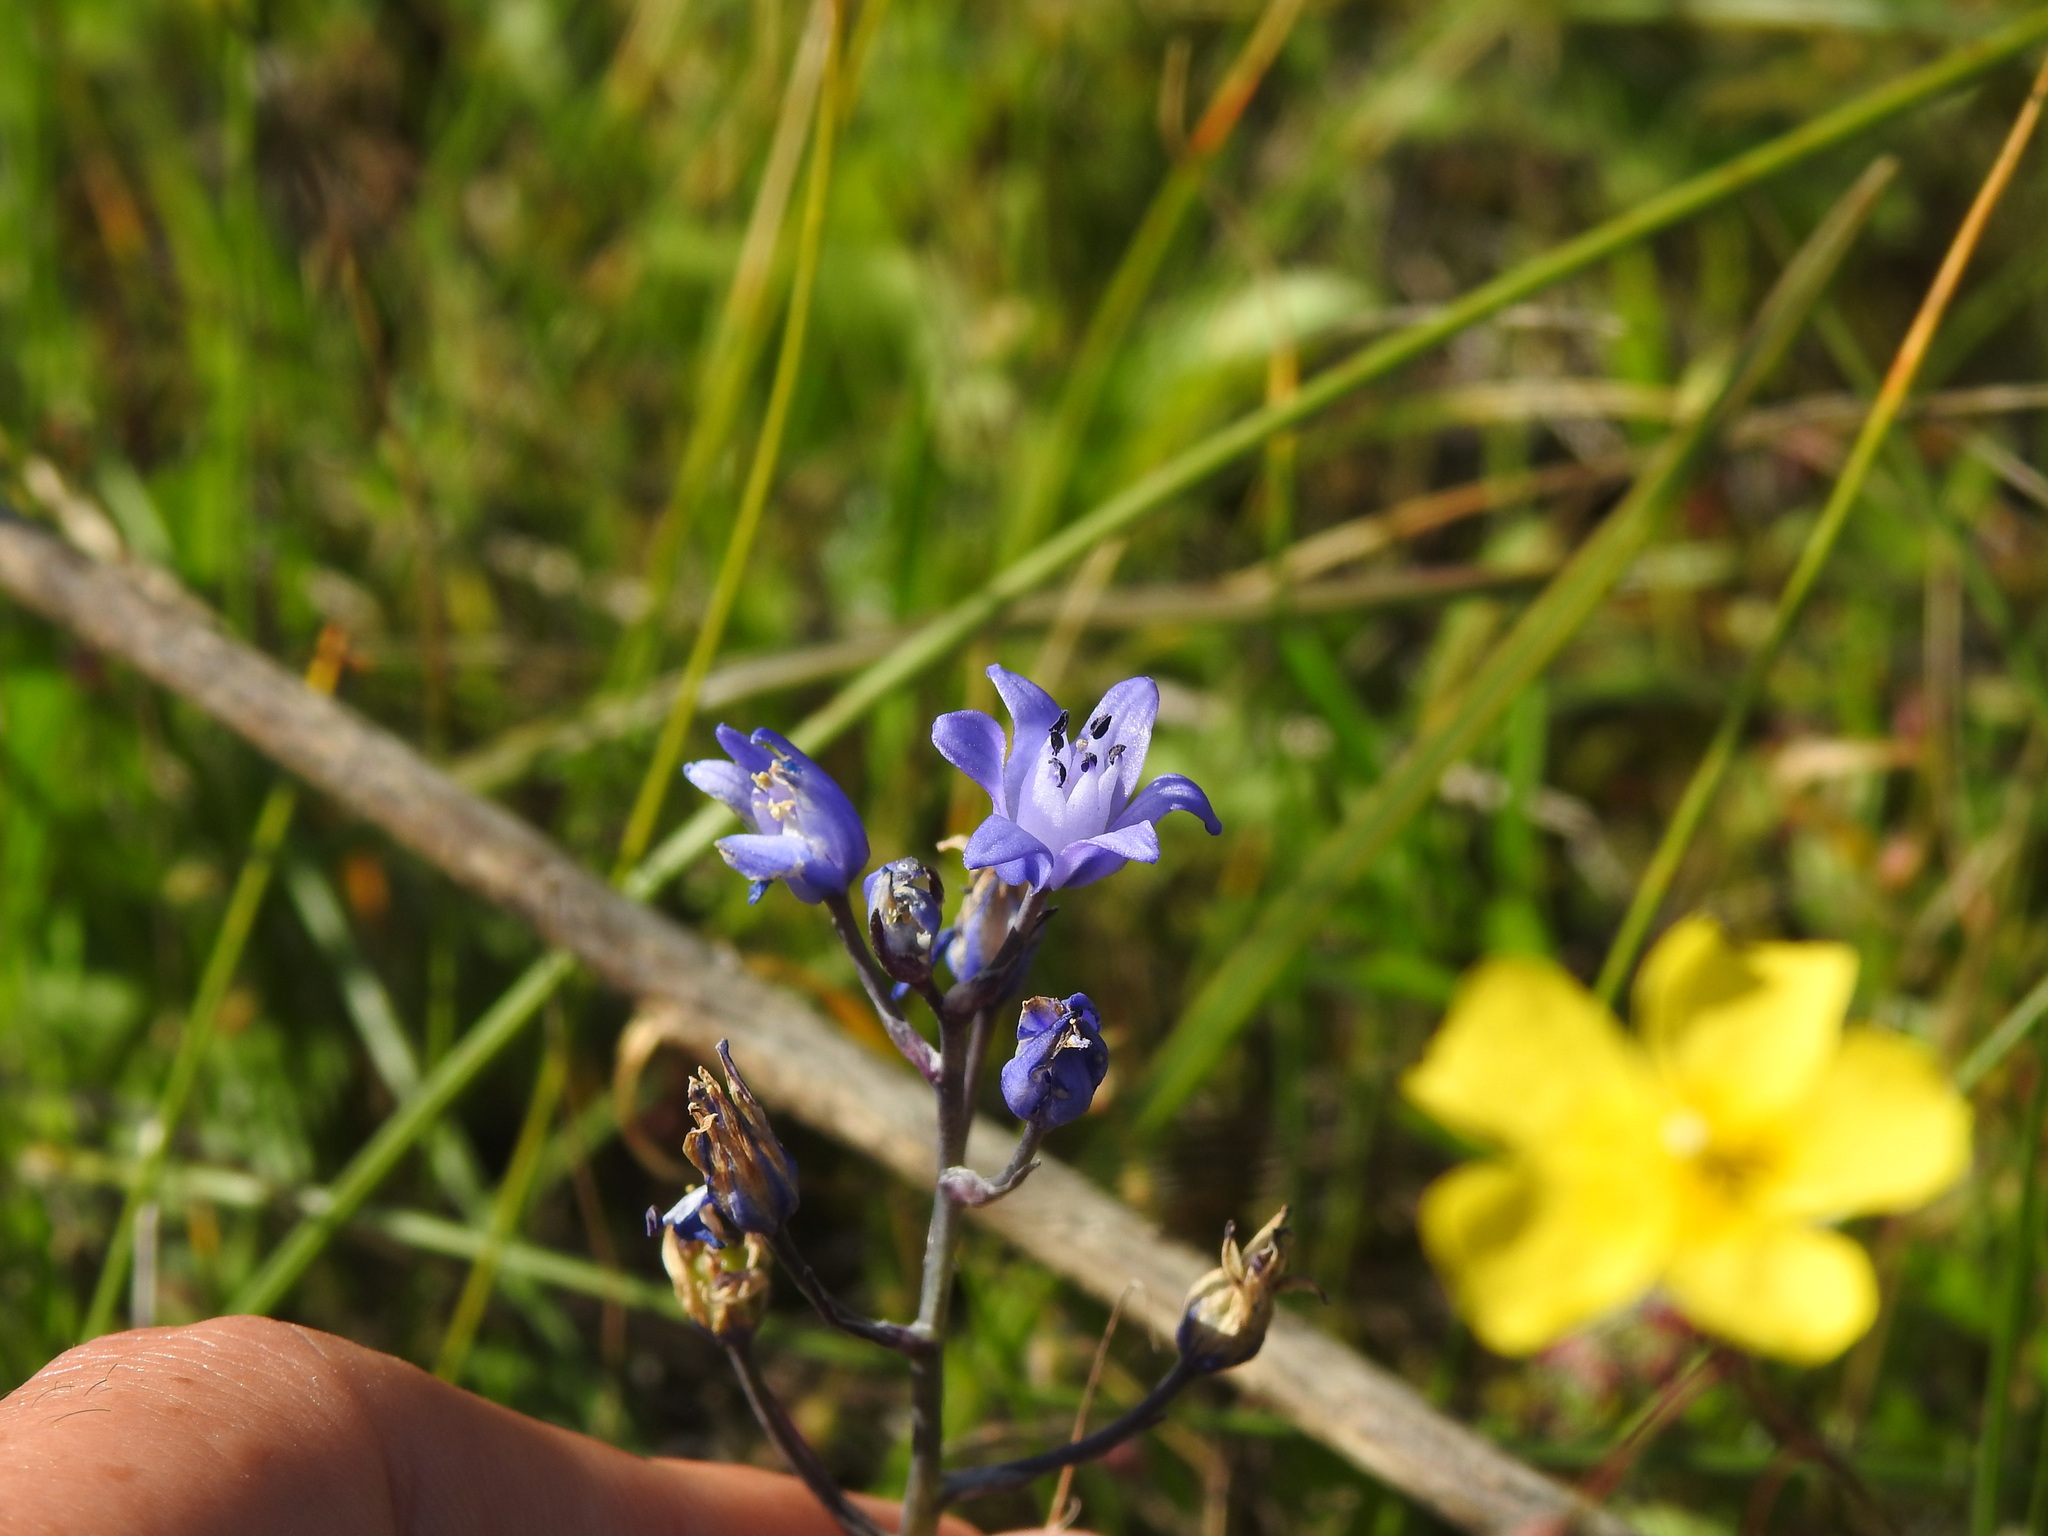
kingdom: Plantae
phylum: Tracheophyta
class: Liliopsida
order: Asparagales
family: Asparagaceae
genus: Scilla
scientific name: Scilla verna
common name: Spring squill
